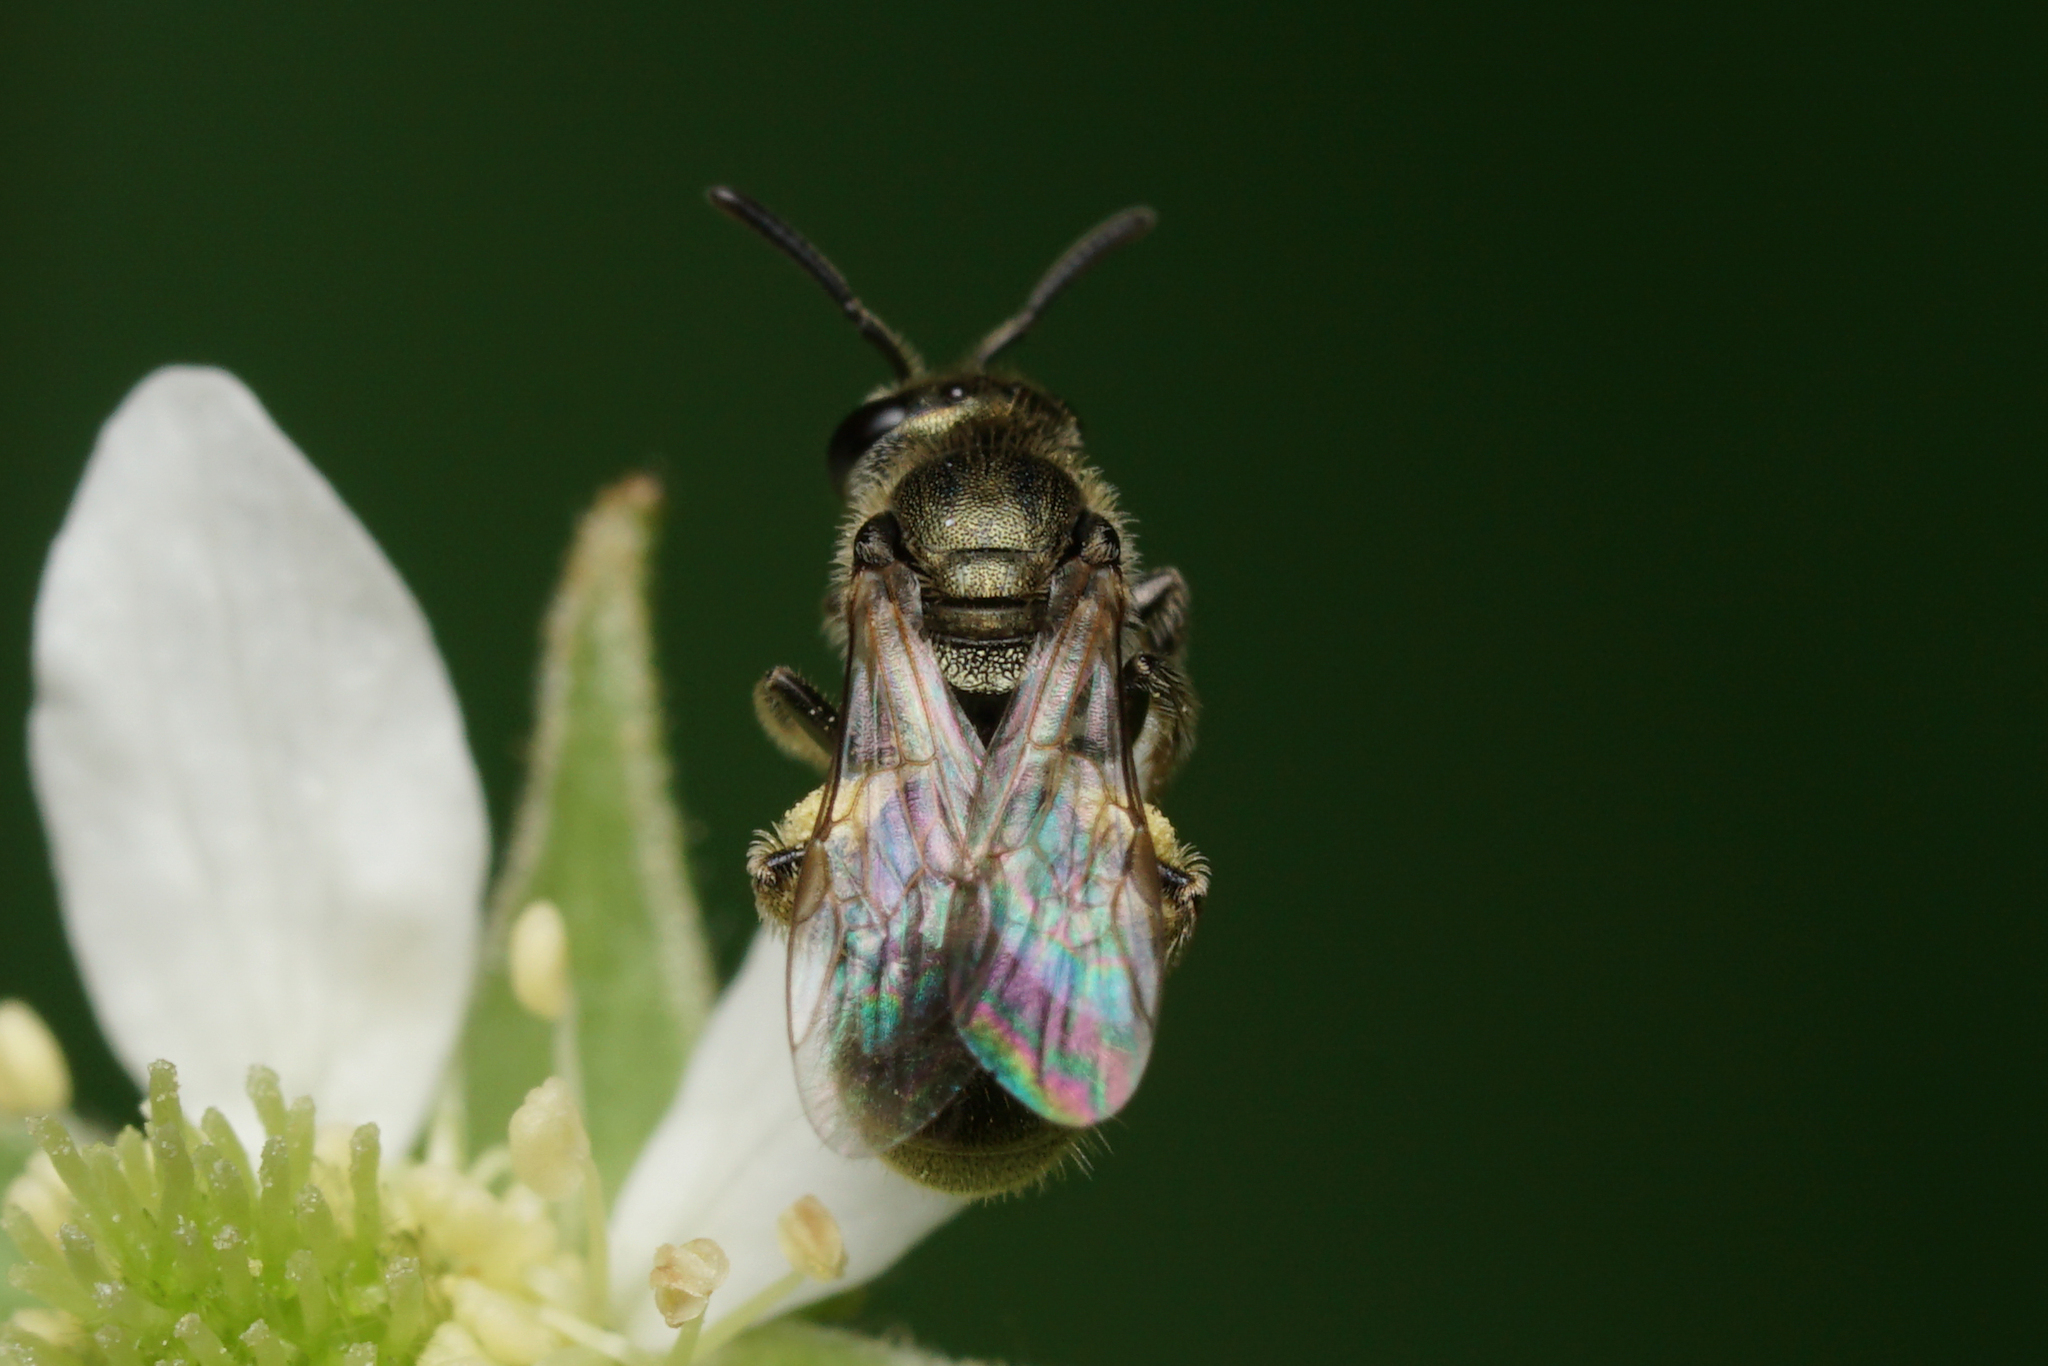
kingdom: Animalia
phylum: Arthropoda
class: Insecta
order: Hymenoptera
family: Halictidae
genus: Dialictus
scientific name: Dialictus
